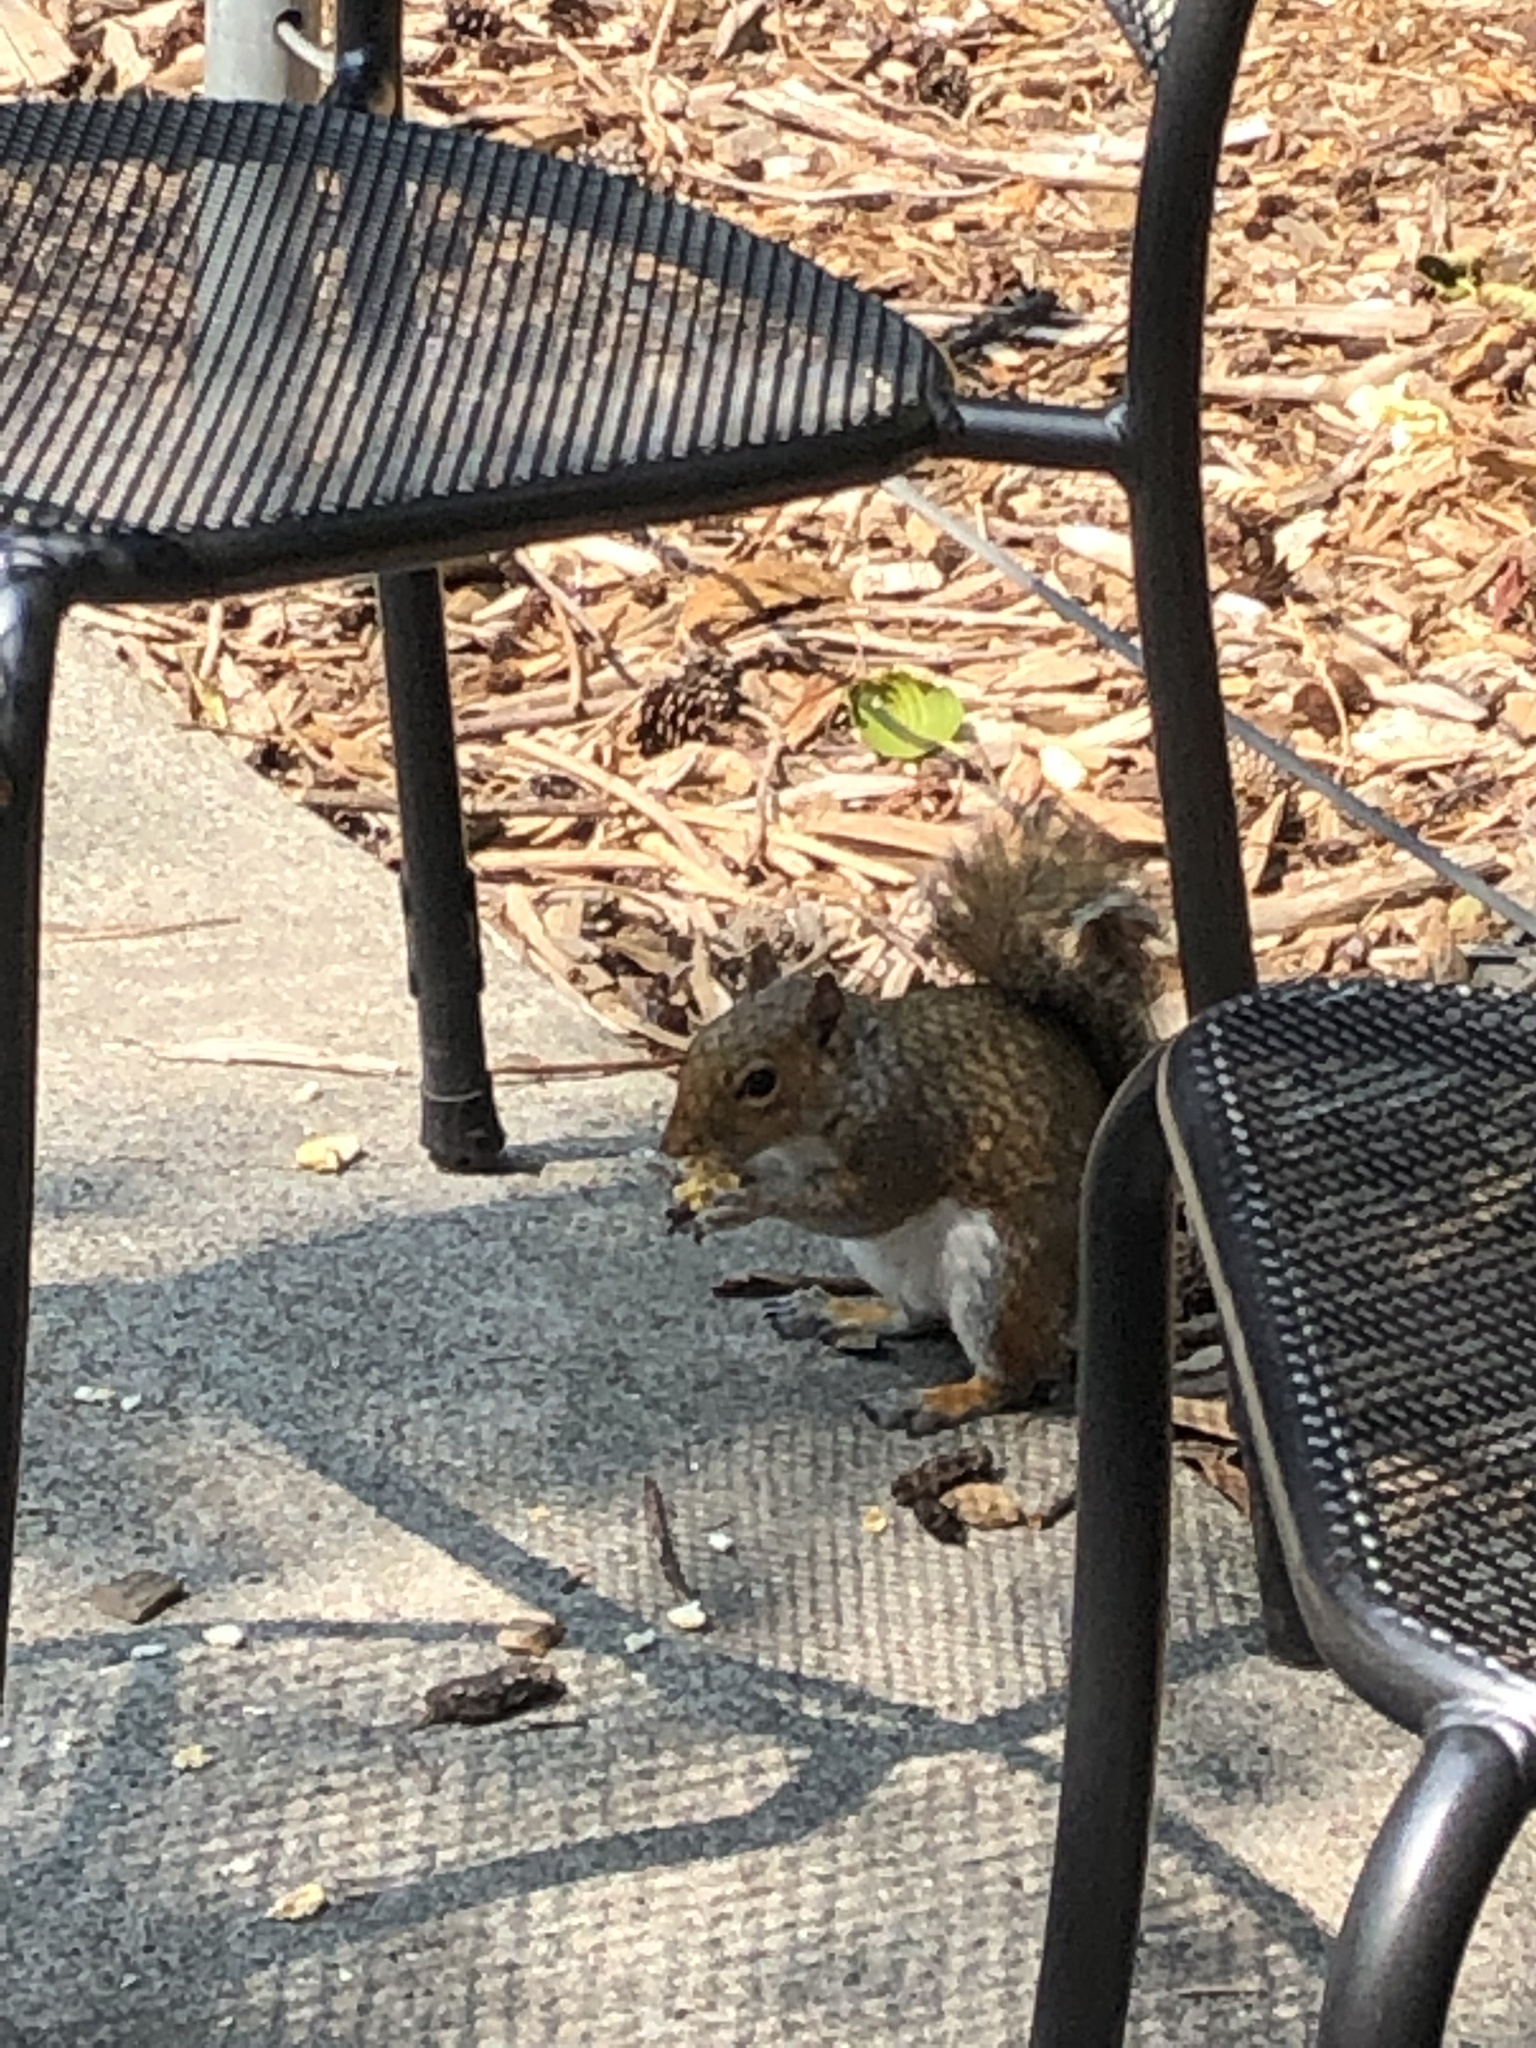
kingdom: Animalia
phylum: Chordata
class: Mammalia
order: Rodentia
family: Sciuridae
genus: Sciurus
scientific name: Sciurus carolinensis
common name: Eastern gray squirrel
